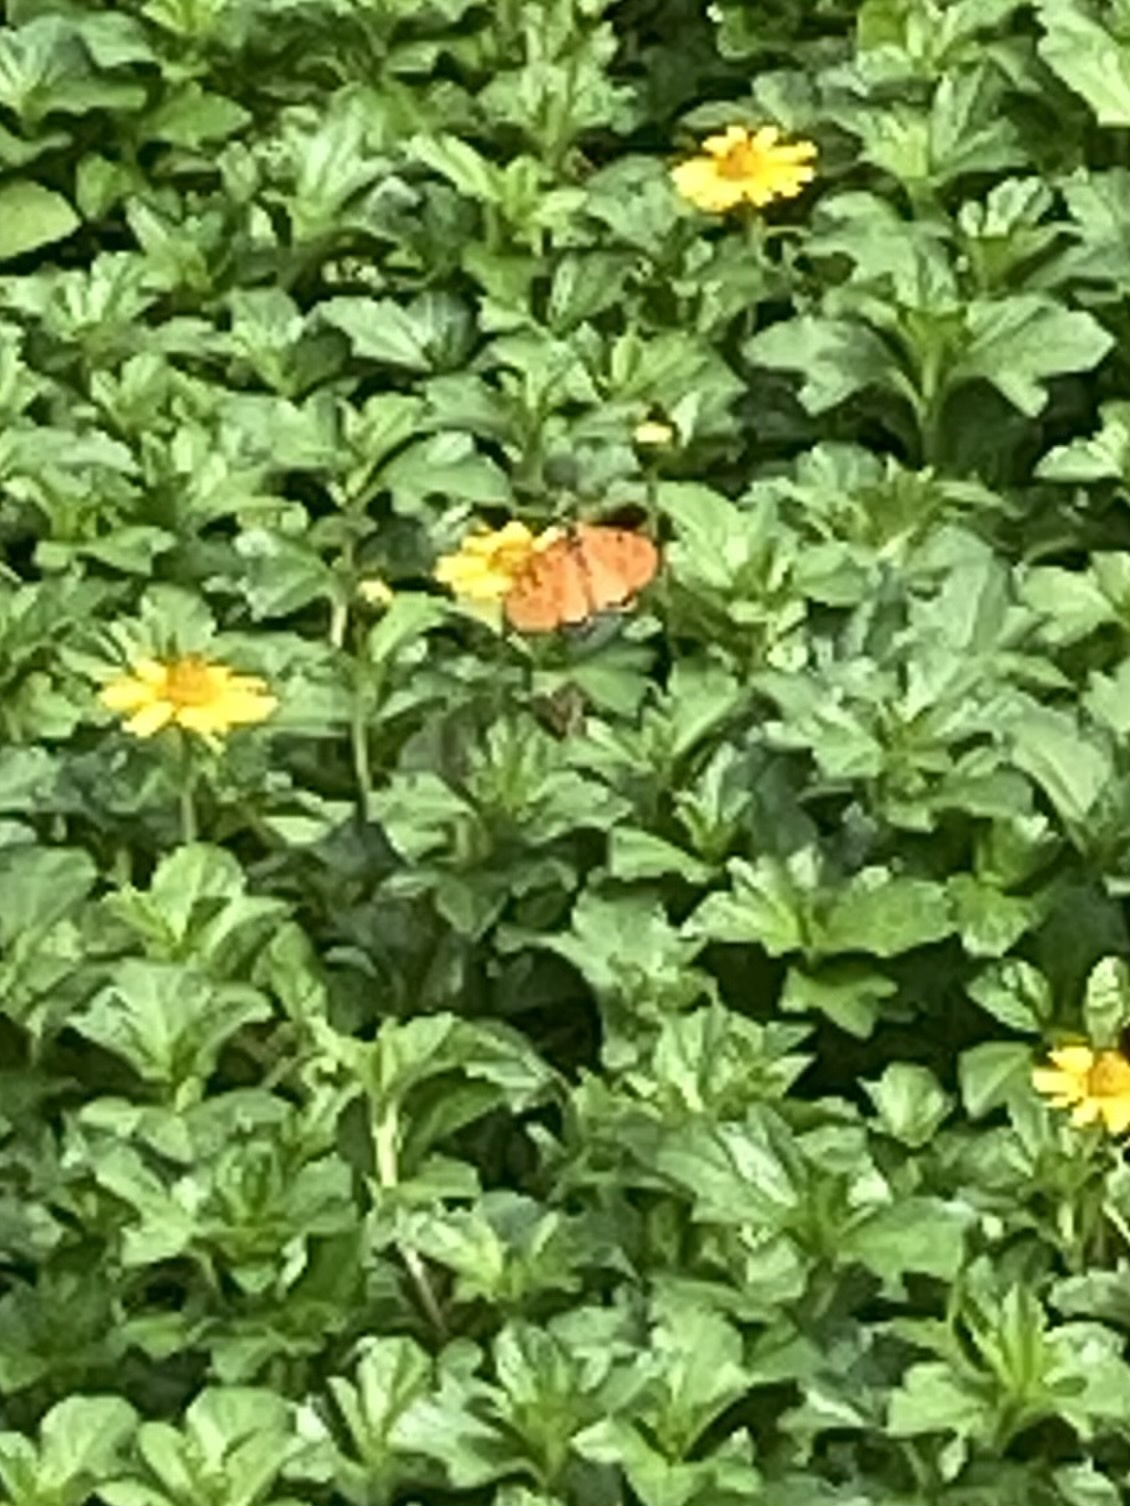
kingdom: Animalia
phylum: Arthropoda
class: Insecta
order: Lepidoptera
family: Nymphalidae
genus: Acraea
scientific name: Acraea terpsicore
